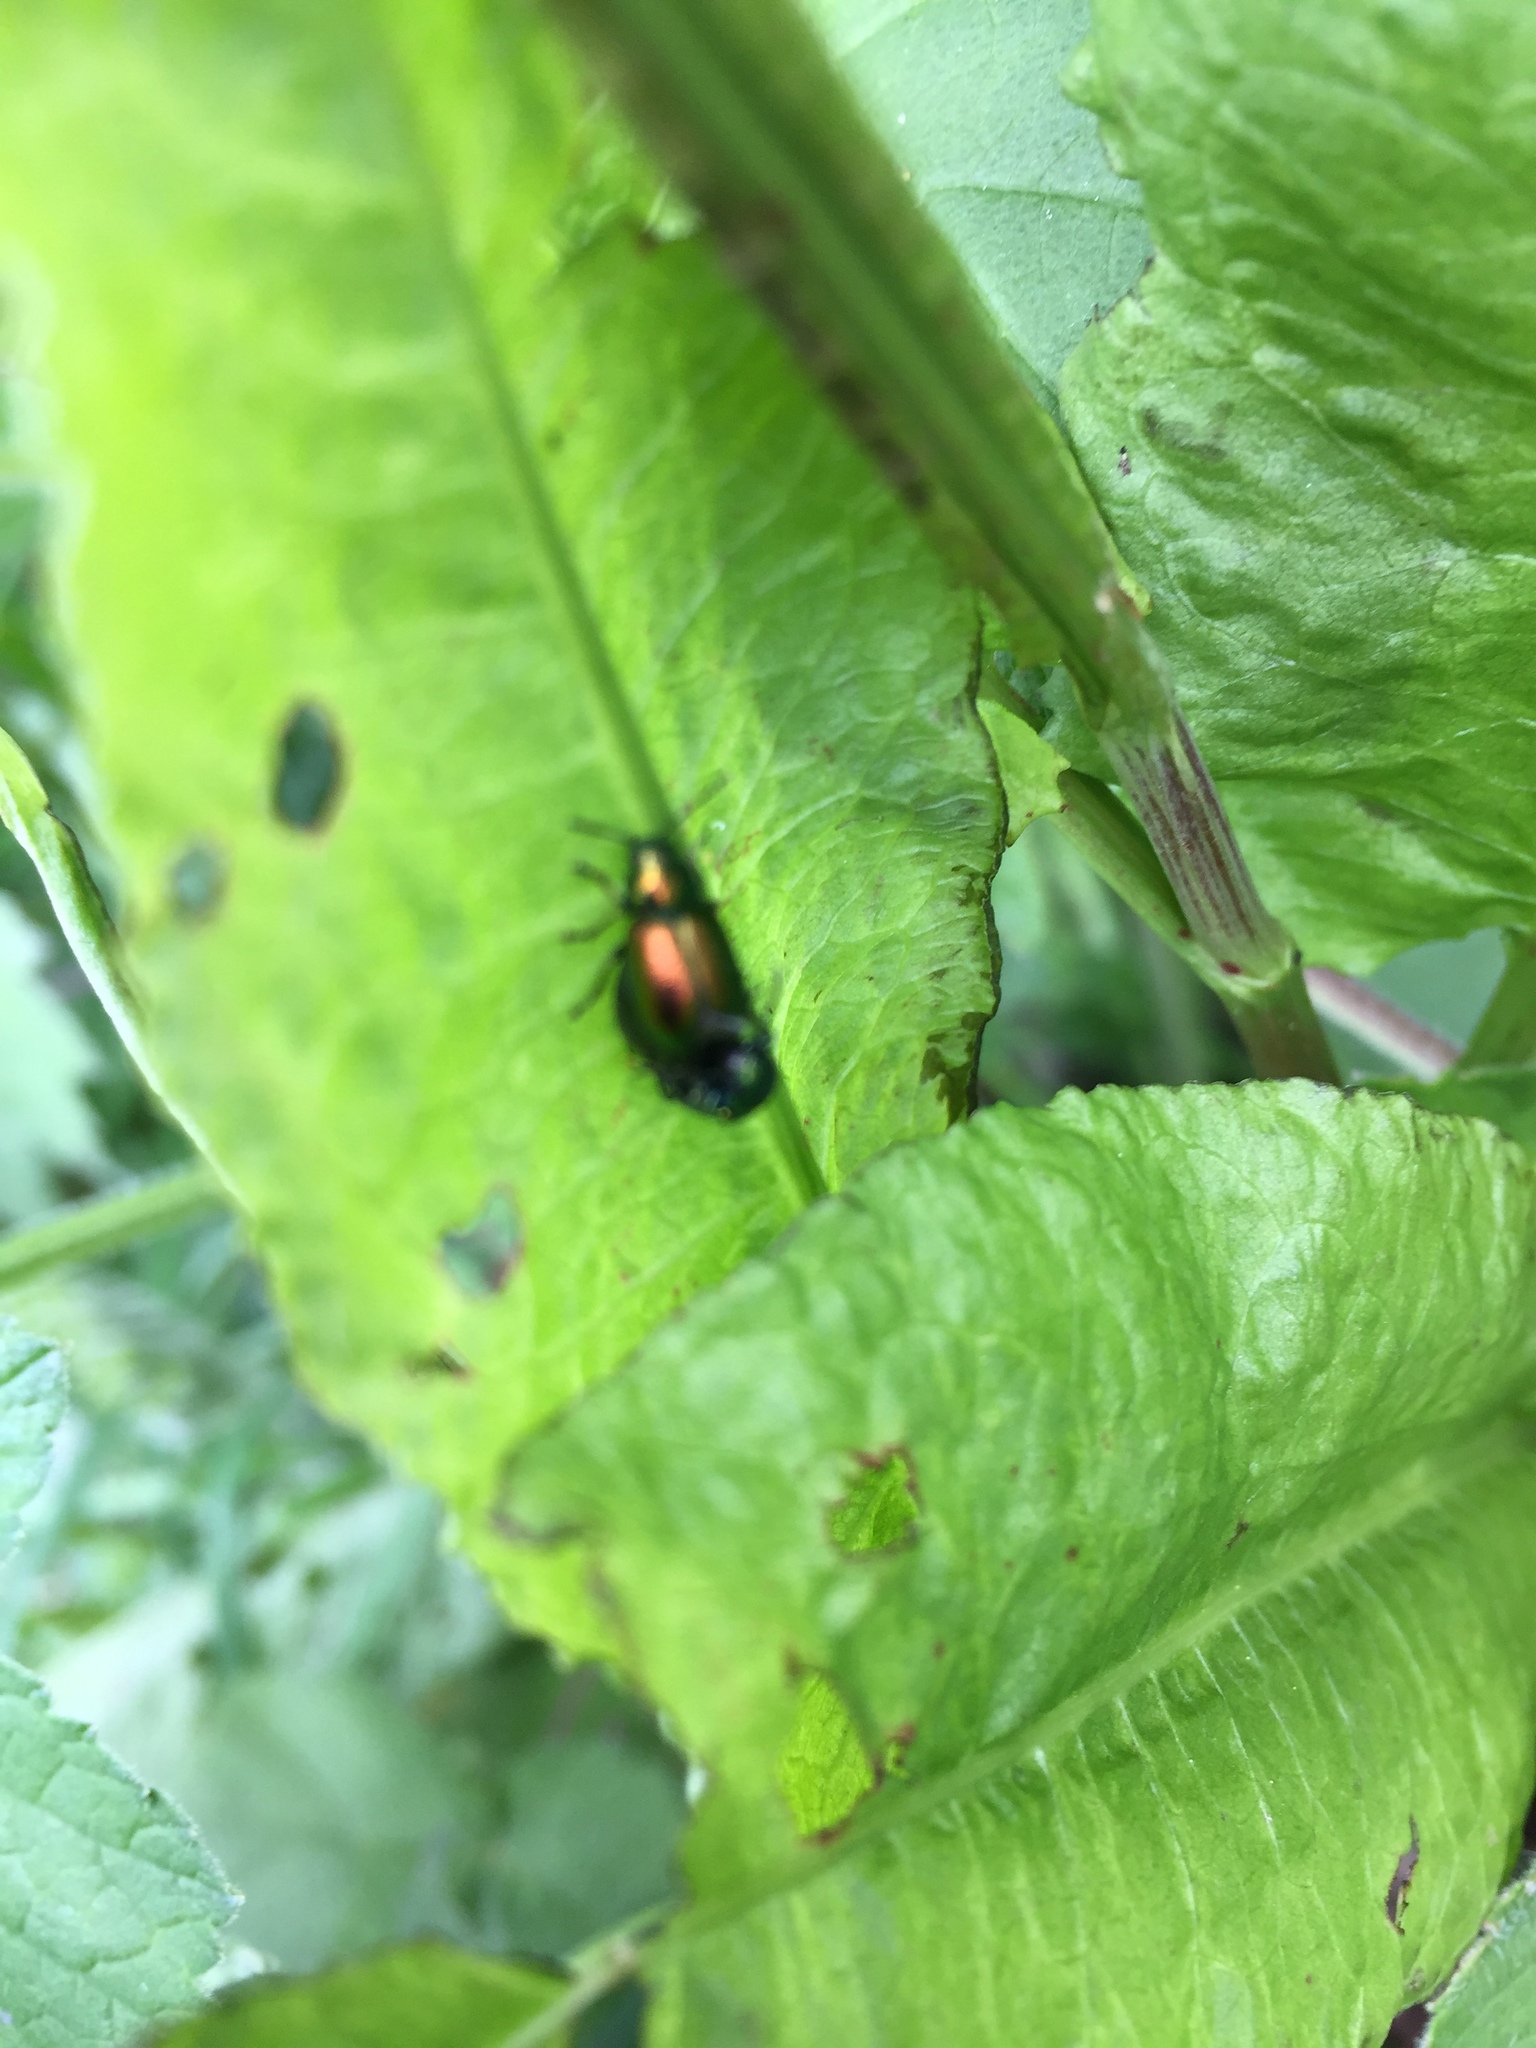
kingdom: Animalia
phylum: Arthropoda
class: Insecta
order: Coleoptera
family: Chrysomelidae
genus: Gastrophysa
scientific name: Gastrophysa viridula
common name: Green dock beetle
